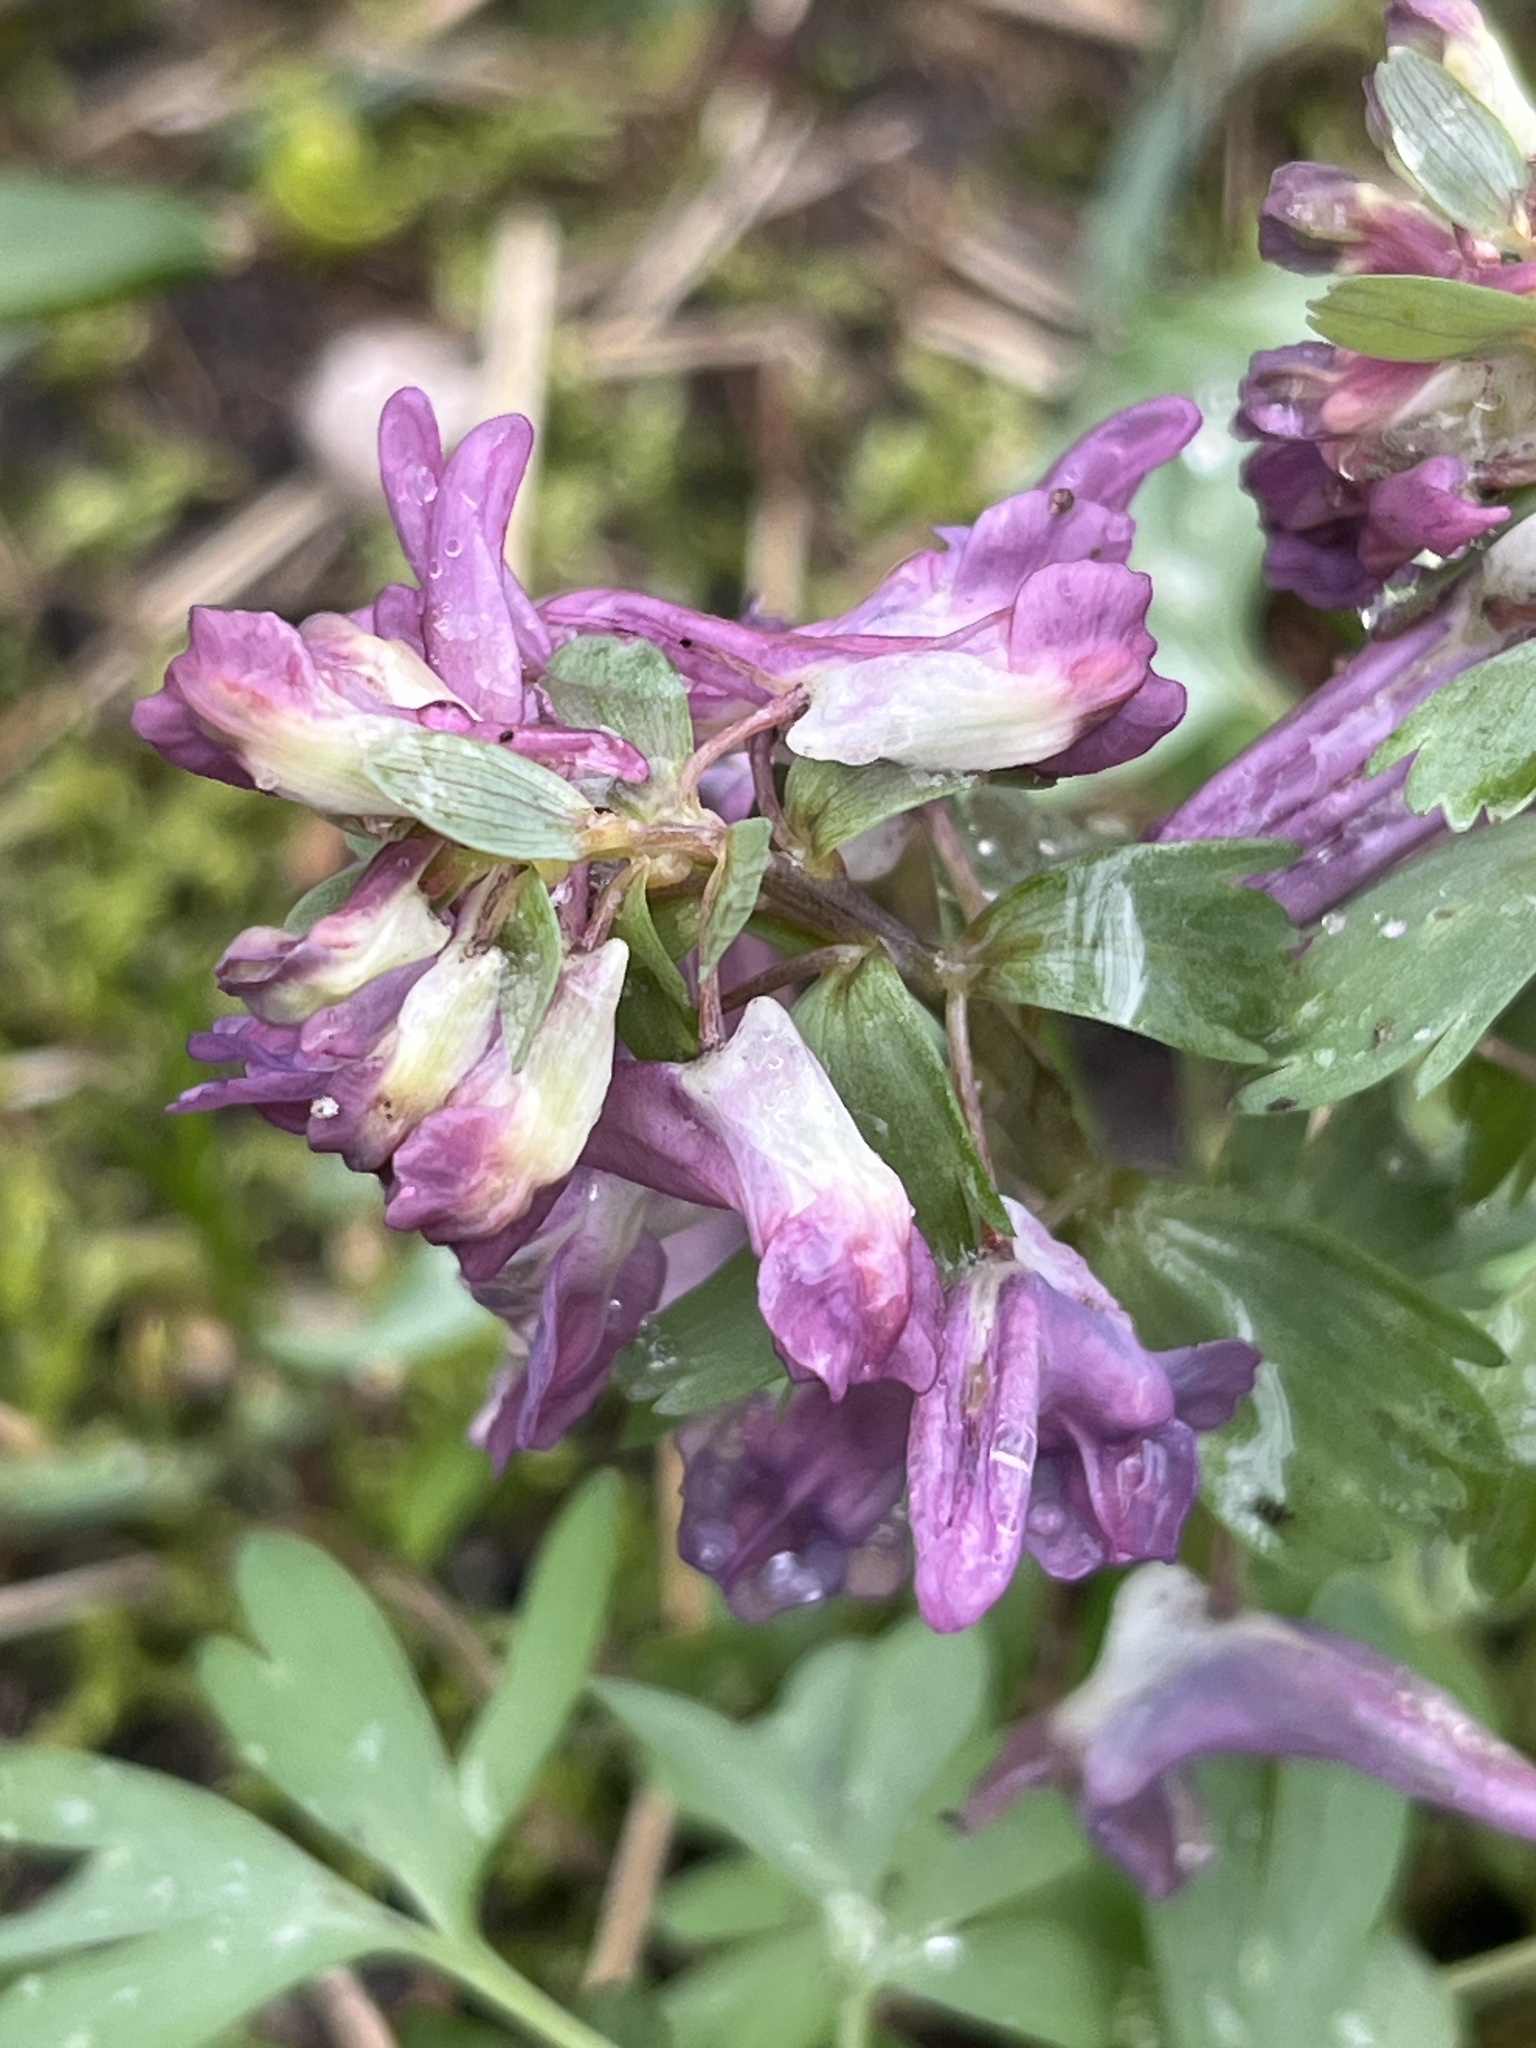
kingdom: Plantae
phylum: Tracheophyta
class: Magnoliopsida
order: Ranunculales
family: Papaveraceae
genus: Corydalis
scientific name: Corydalis solida
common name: Bird-in-a-bush
